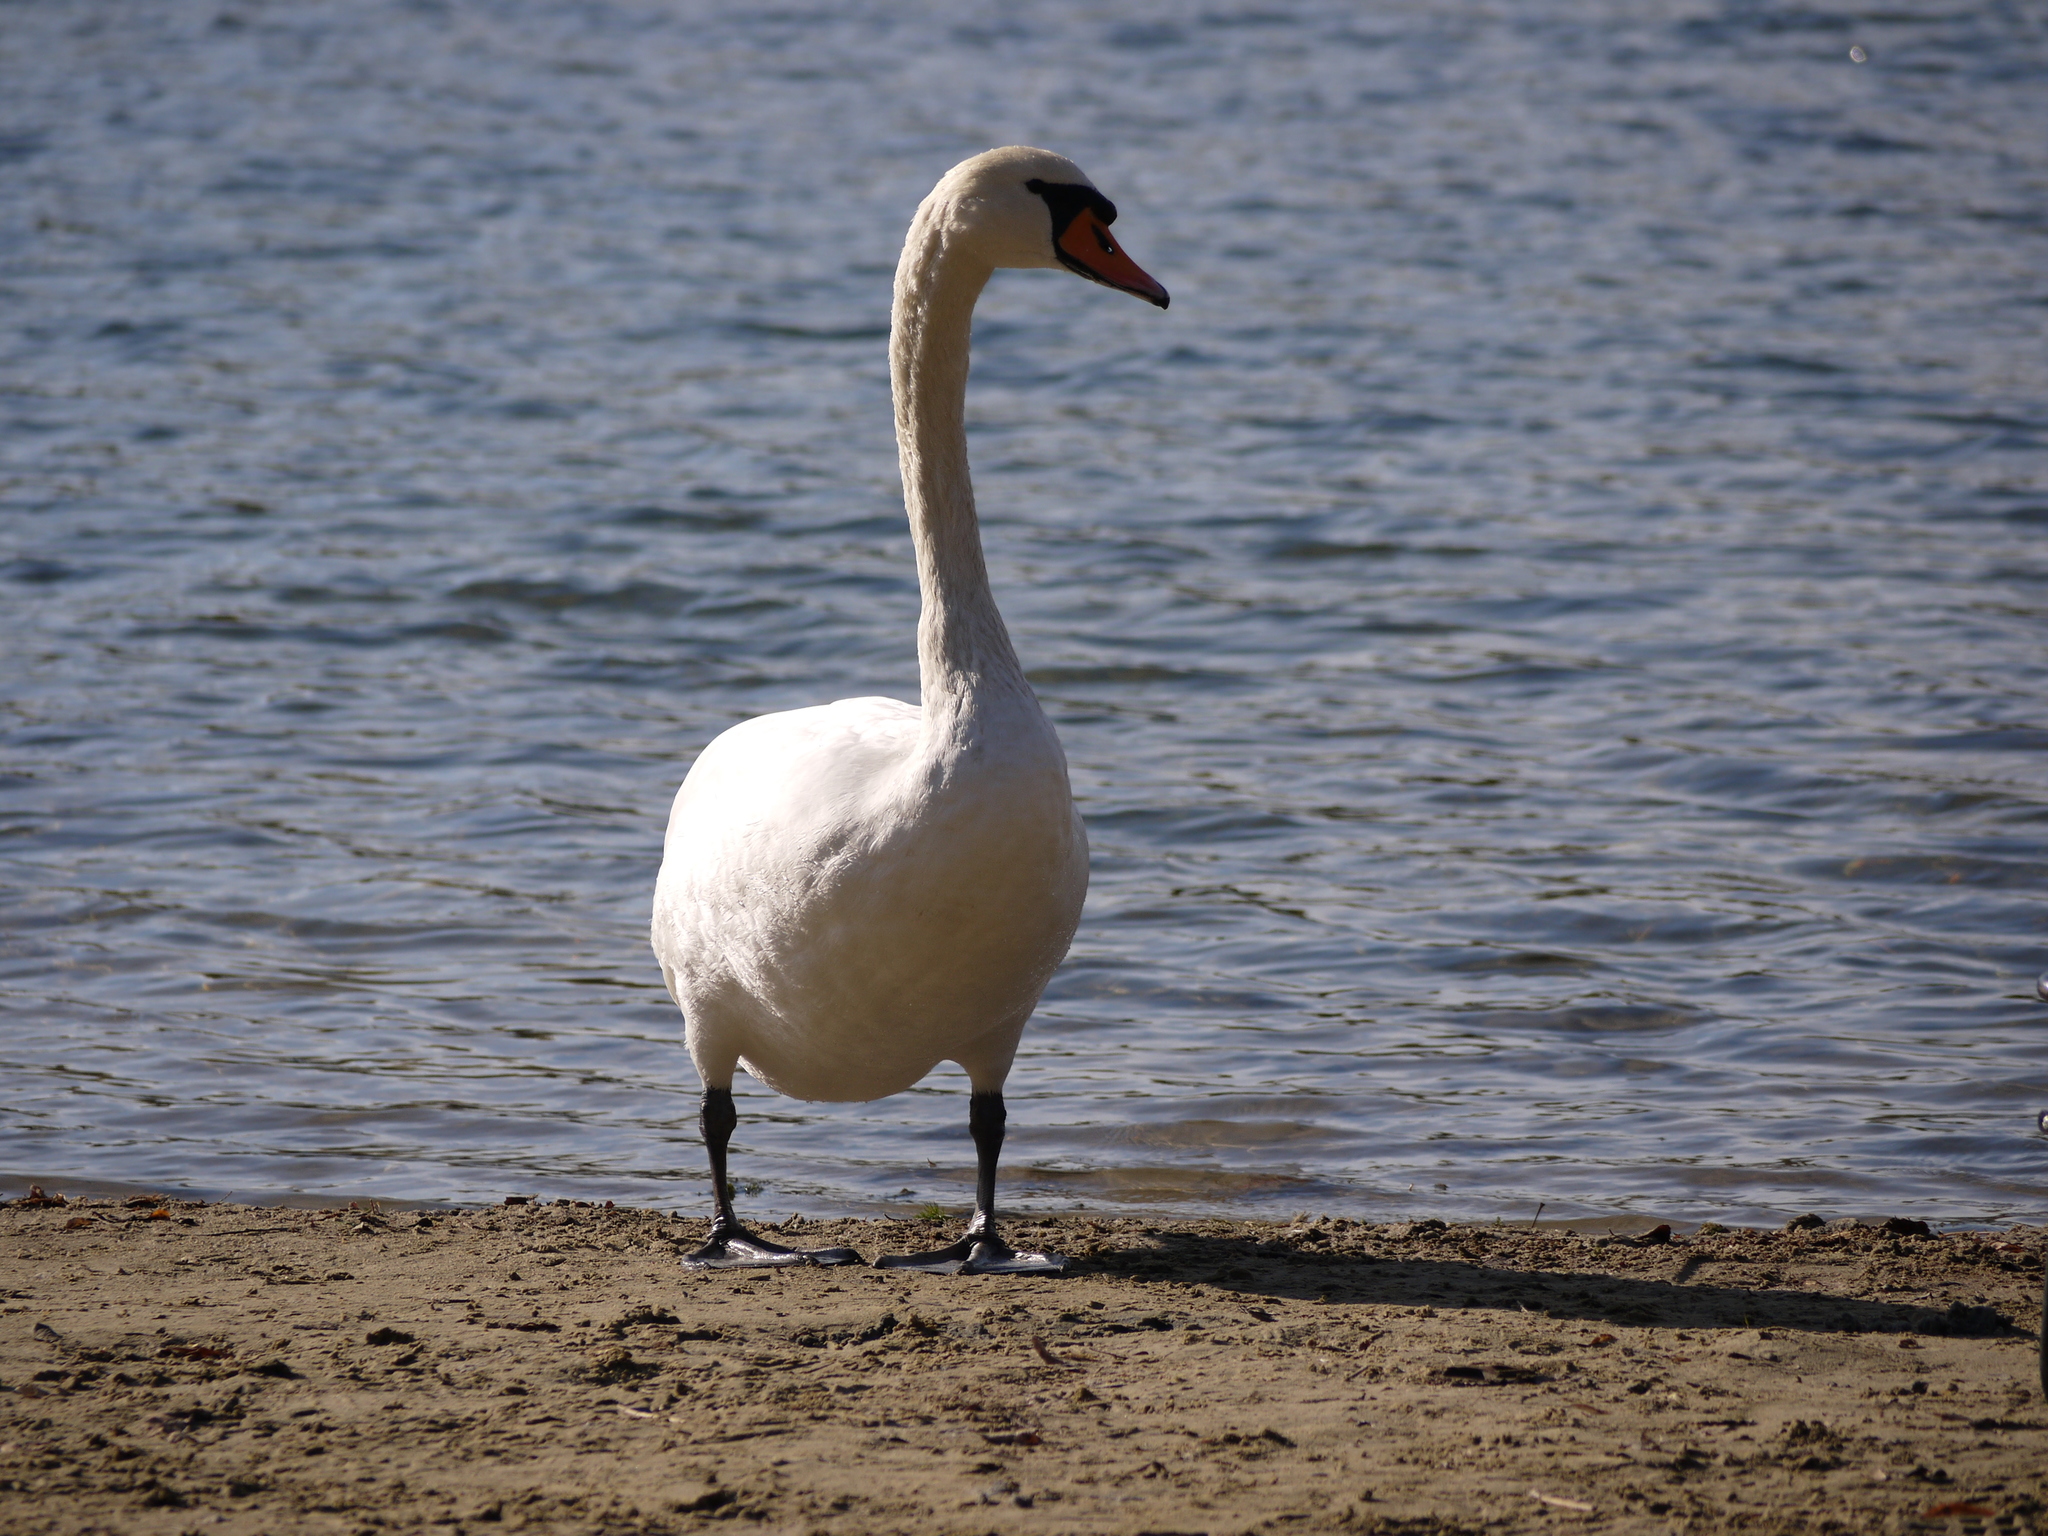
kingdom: Animalia
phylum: Chordata
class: Aves
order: Anseriformes
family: Anatidae
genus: Cygnus
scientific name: Cygnus olor
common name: Mute swan
